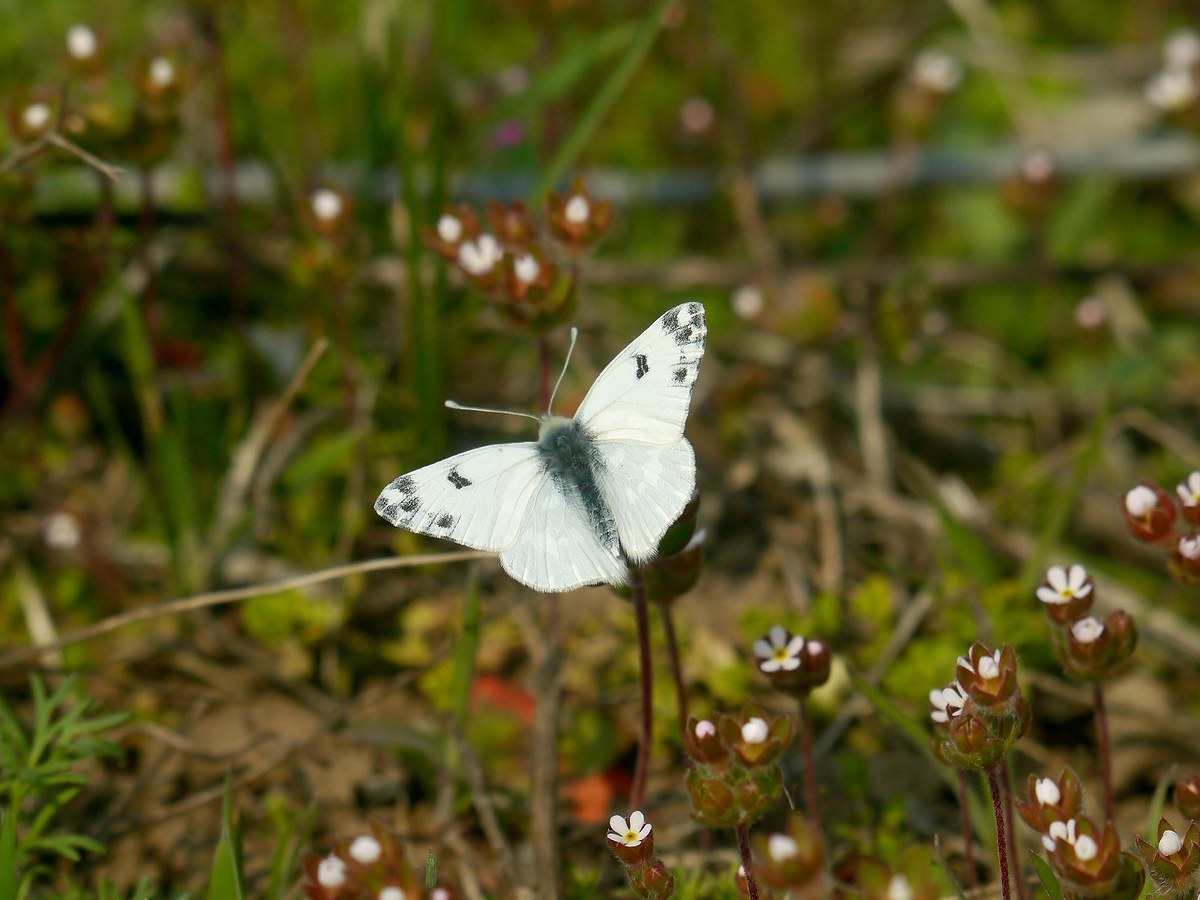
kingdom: Animalia
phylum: Arthropoda
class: Insecta
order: Lepidoptera
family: Pieridae
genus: Pontia
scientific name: Pontia edusa
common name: Eastern bath white
